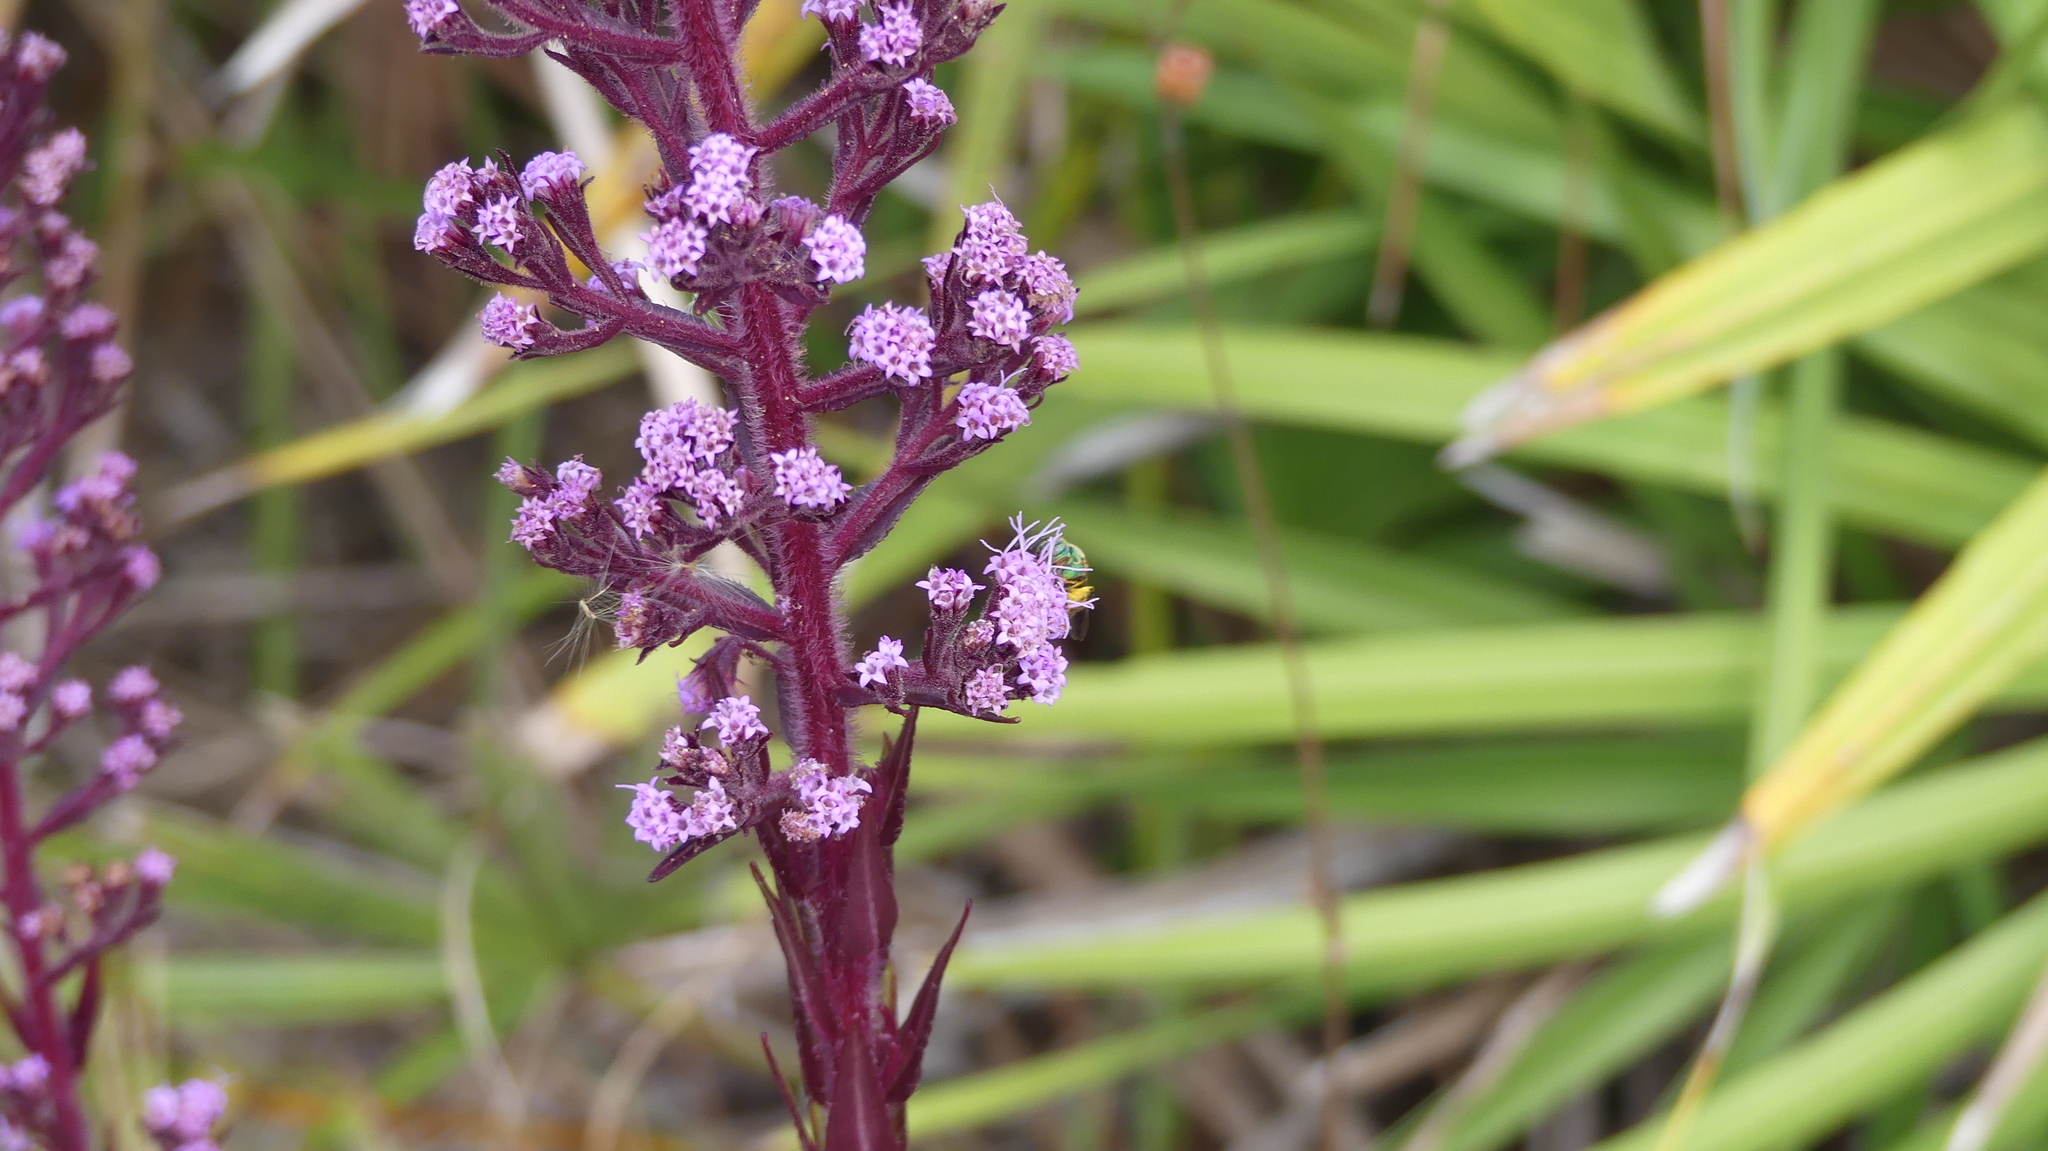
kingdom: Animalia
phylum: Arthropoda
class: Insecta
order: Hymenoptera
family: Halictidae
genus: Agapostemon
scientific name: Agapostemon splendens
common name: Brown-winged striped sweat bee
